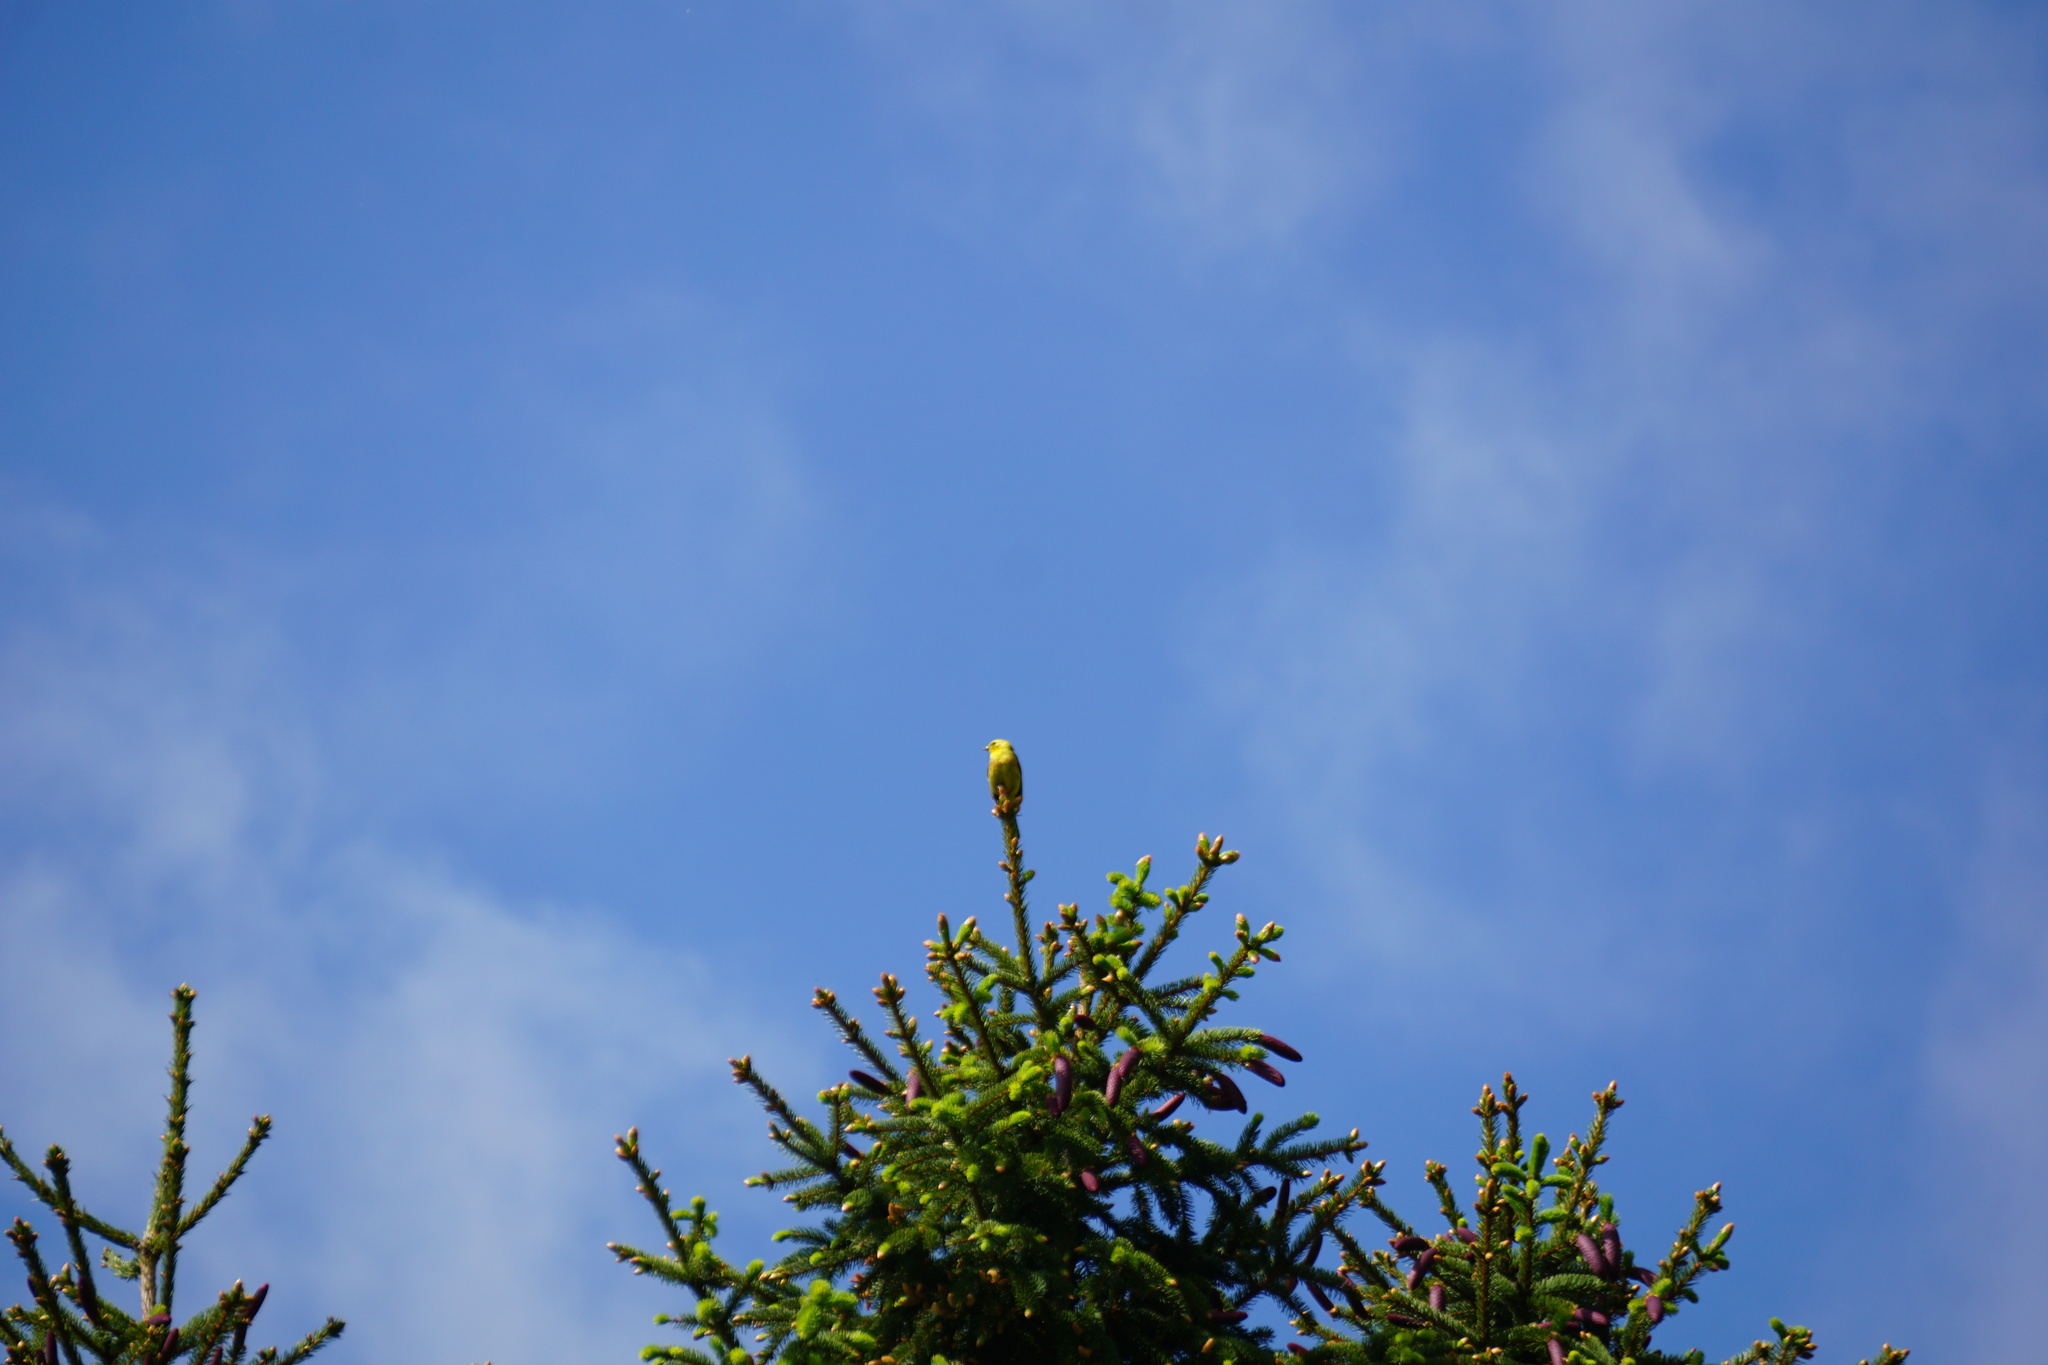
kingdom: Animalia
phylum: Chordata
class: Aves
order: Passeriformes
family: Emberizidae
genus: Emberiza
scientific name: Emberiza citrinella
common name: Yellowhammer
